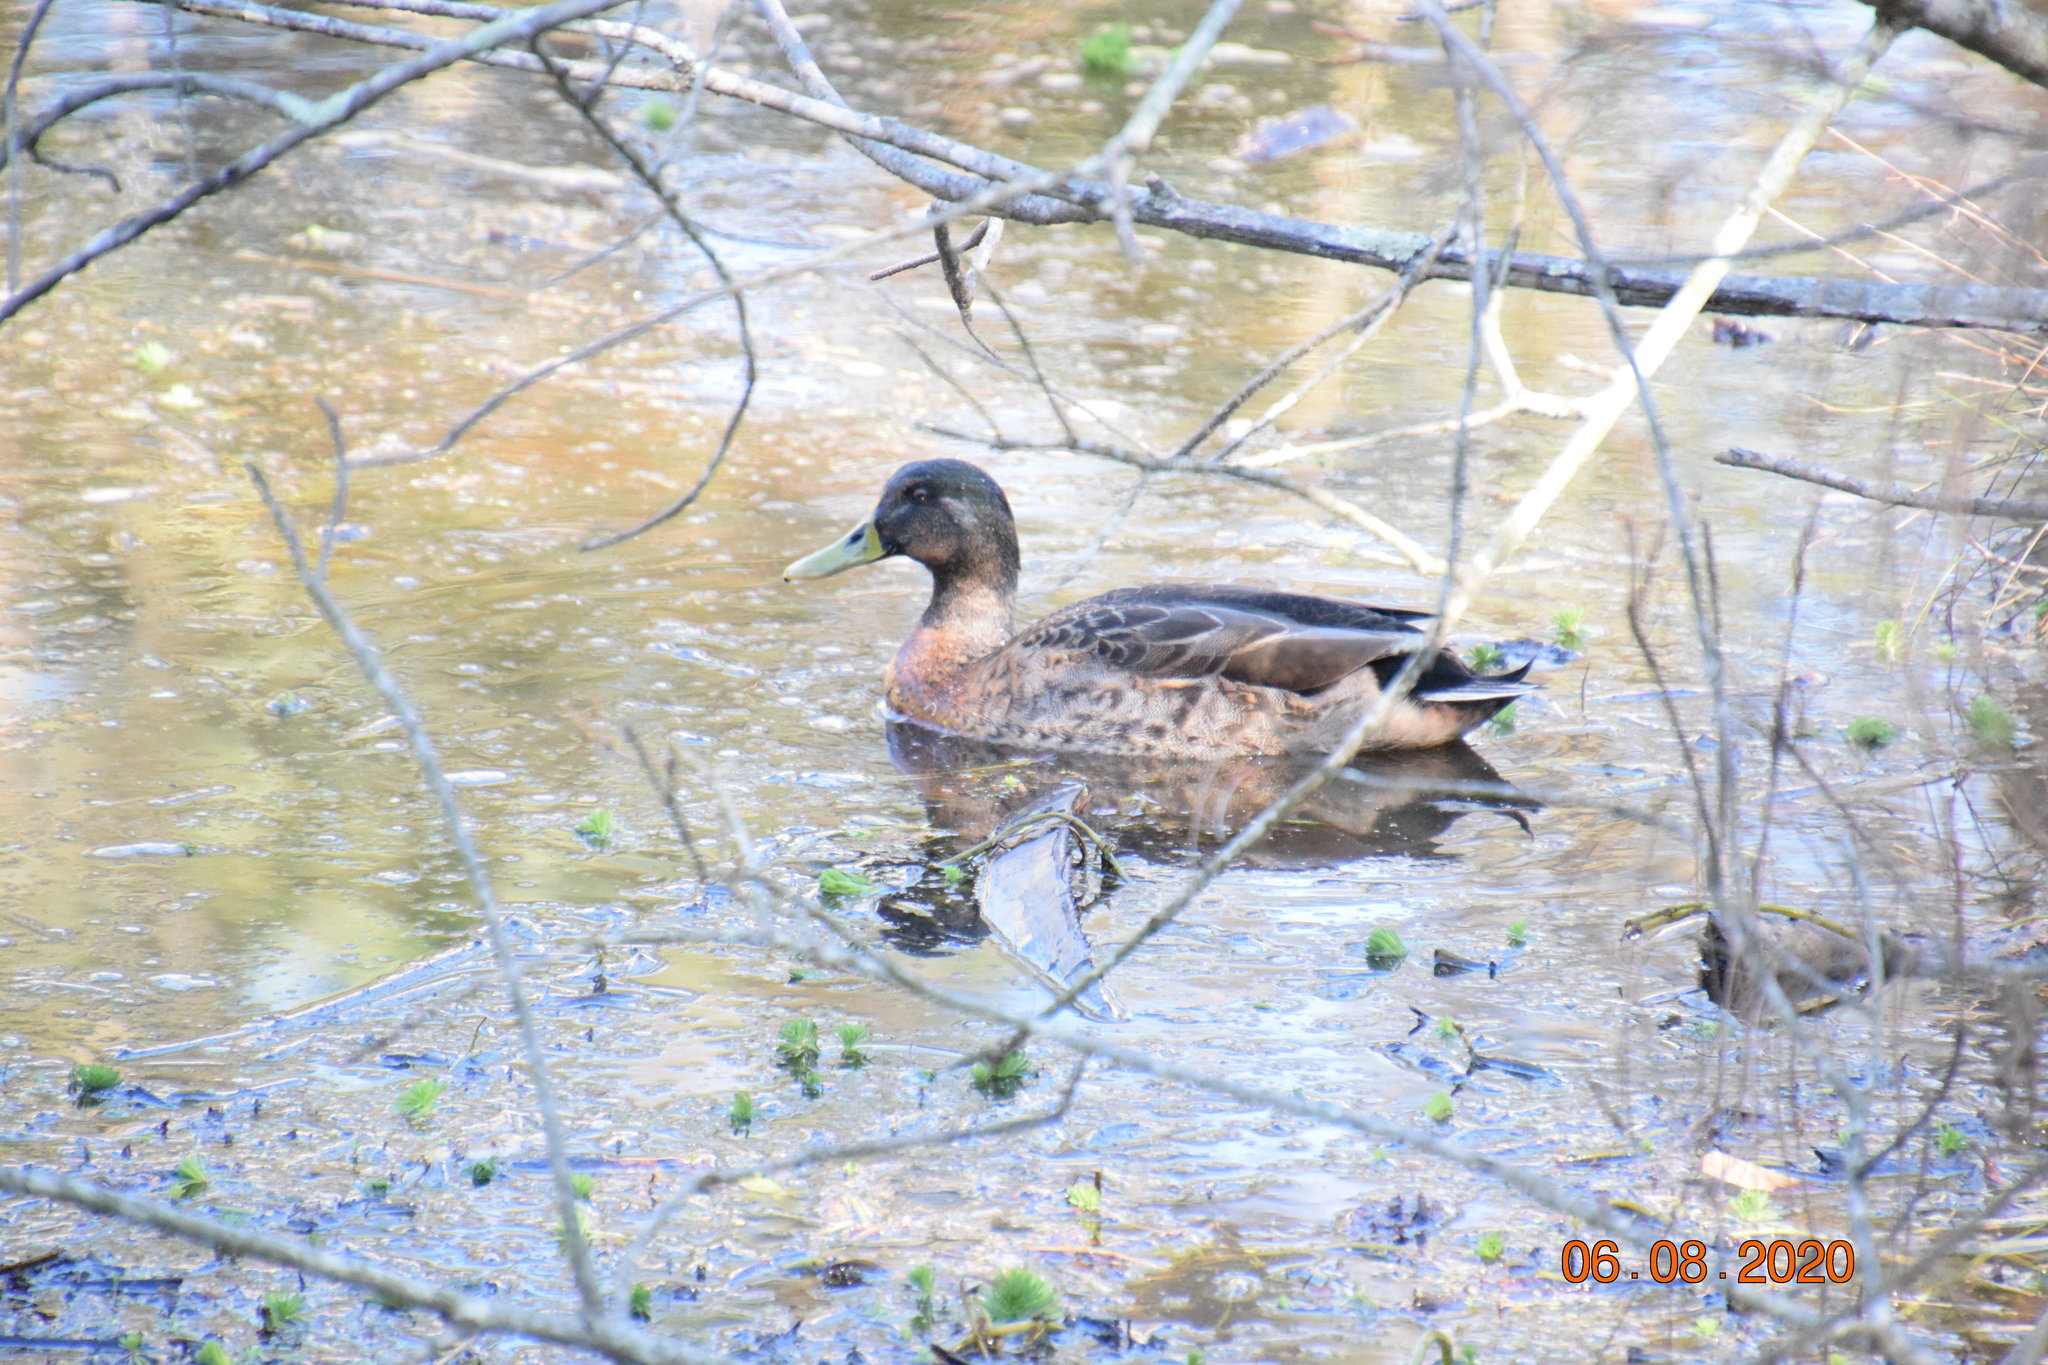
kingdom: Animalia
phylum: Chordata
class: Aves
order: Anseriformes
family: Anatidae
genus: Anas
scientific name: Anas platyrhynchos
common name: Mallard
